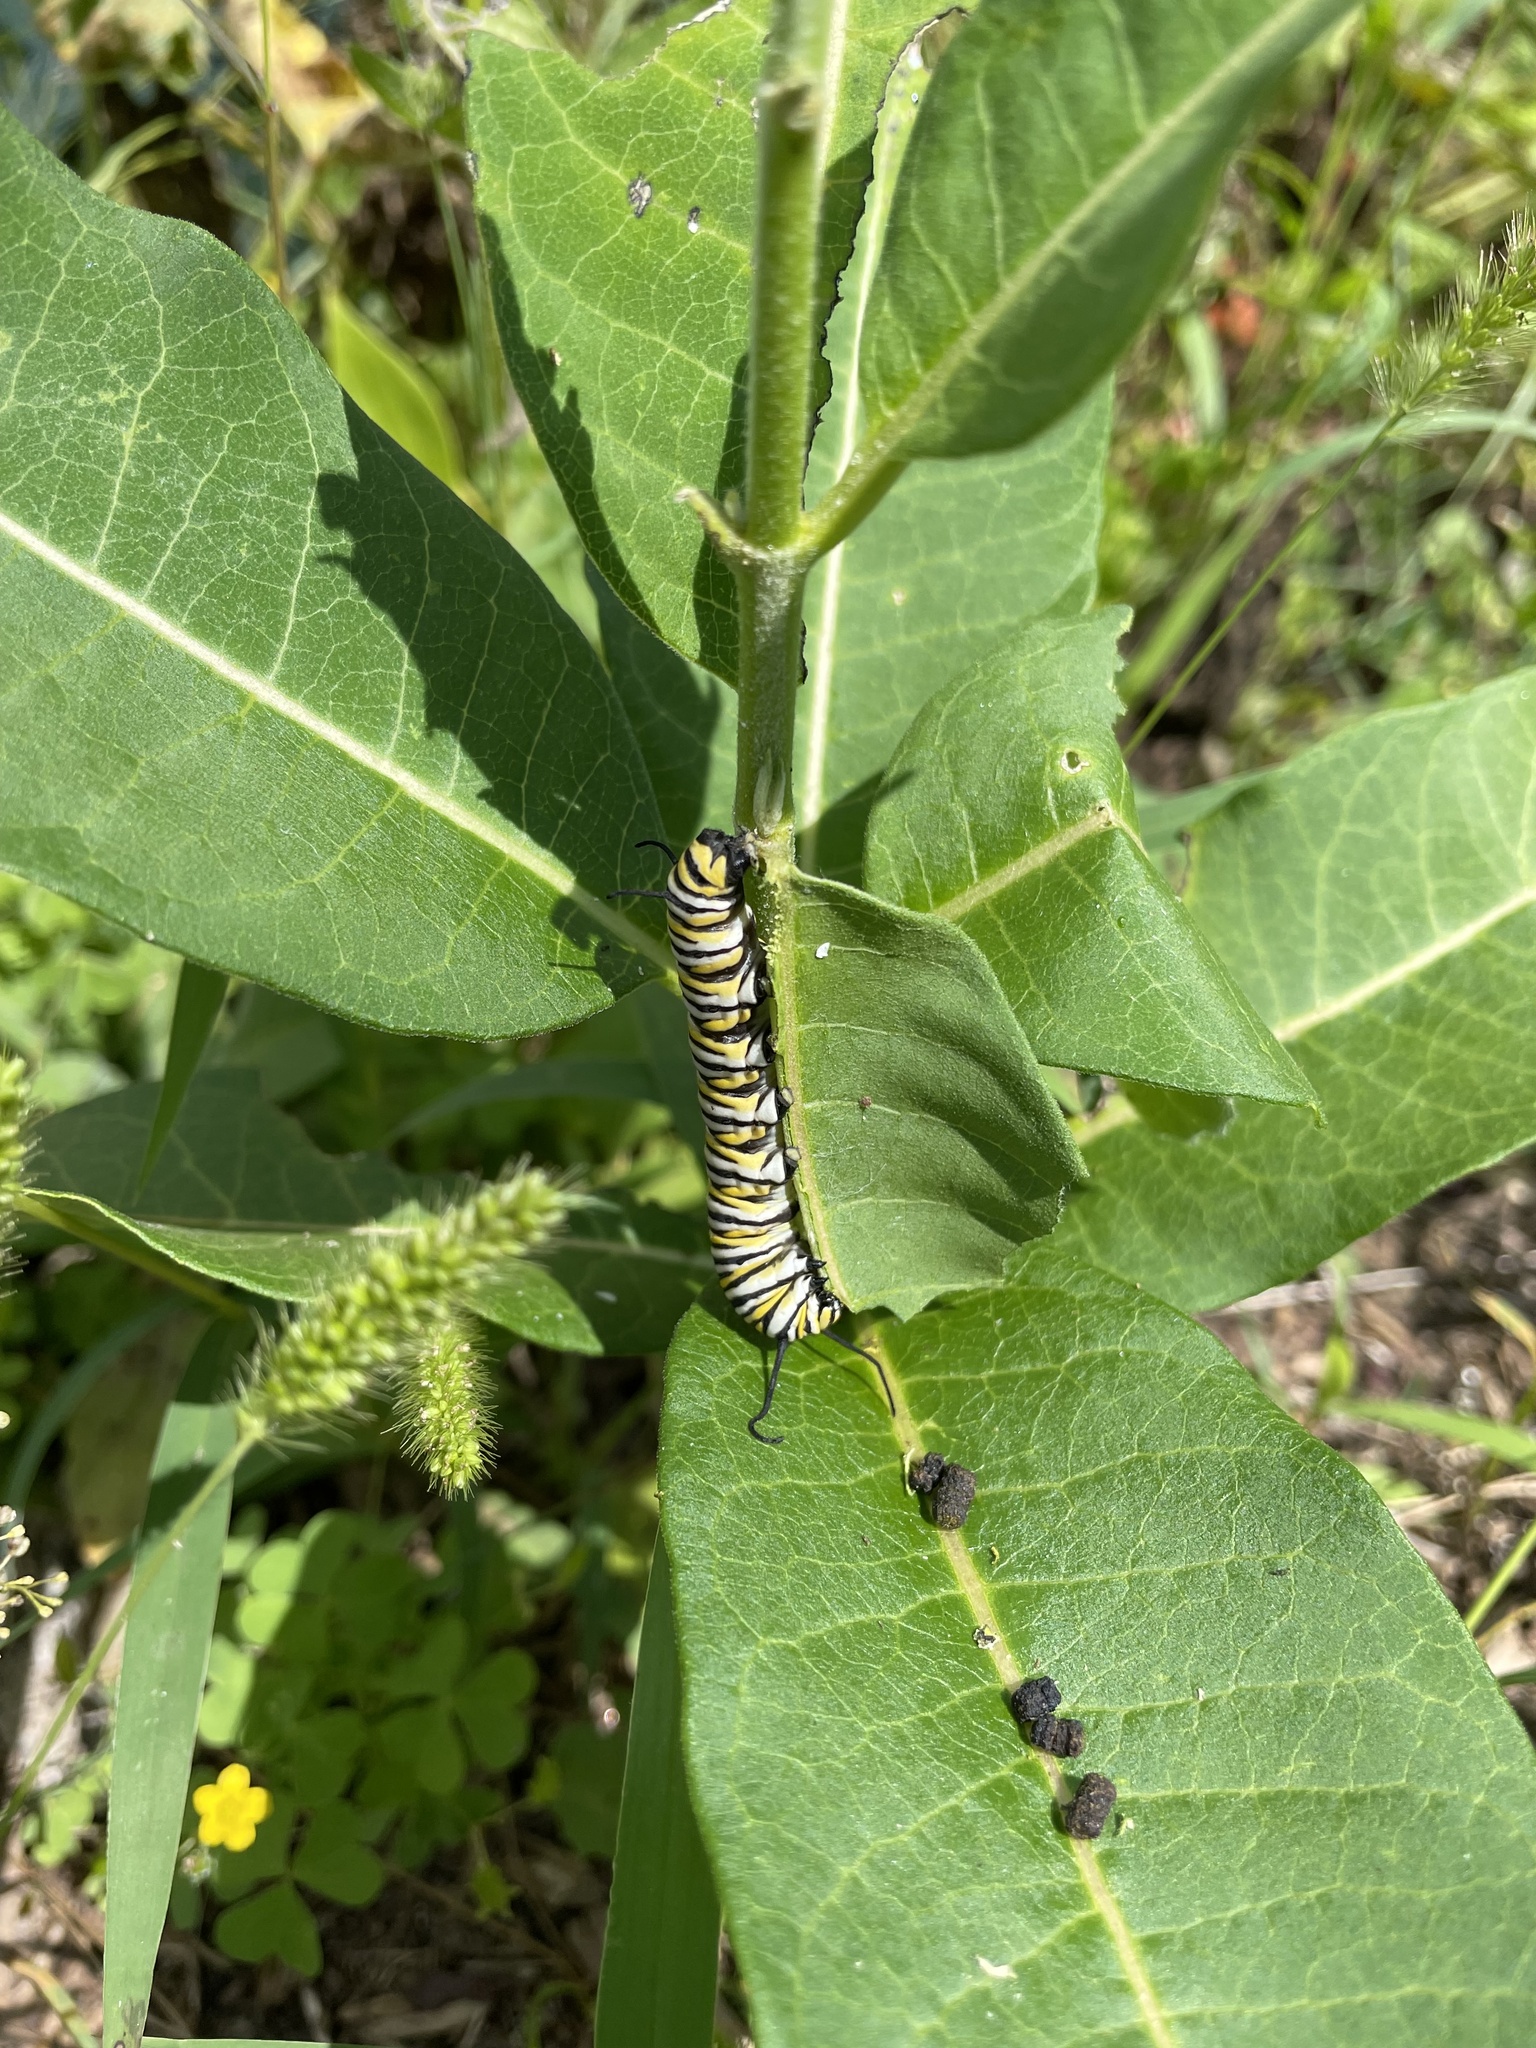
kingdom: Animalia
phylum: Arthropoda
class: Insecta
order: Lepidoptera
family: Nymphalidae
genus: Danaus
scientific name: Danaus plexippus
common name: Monarch
